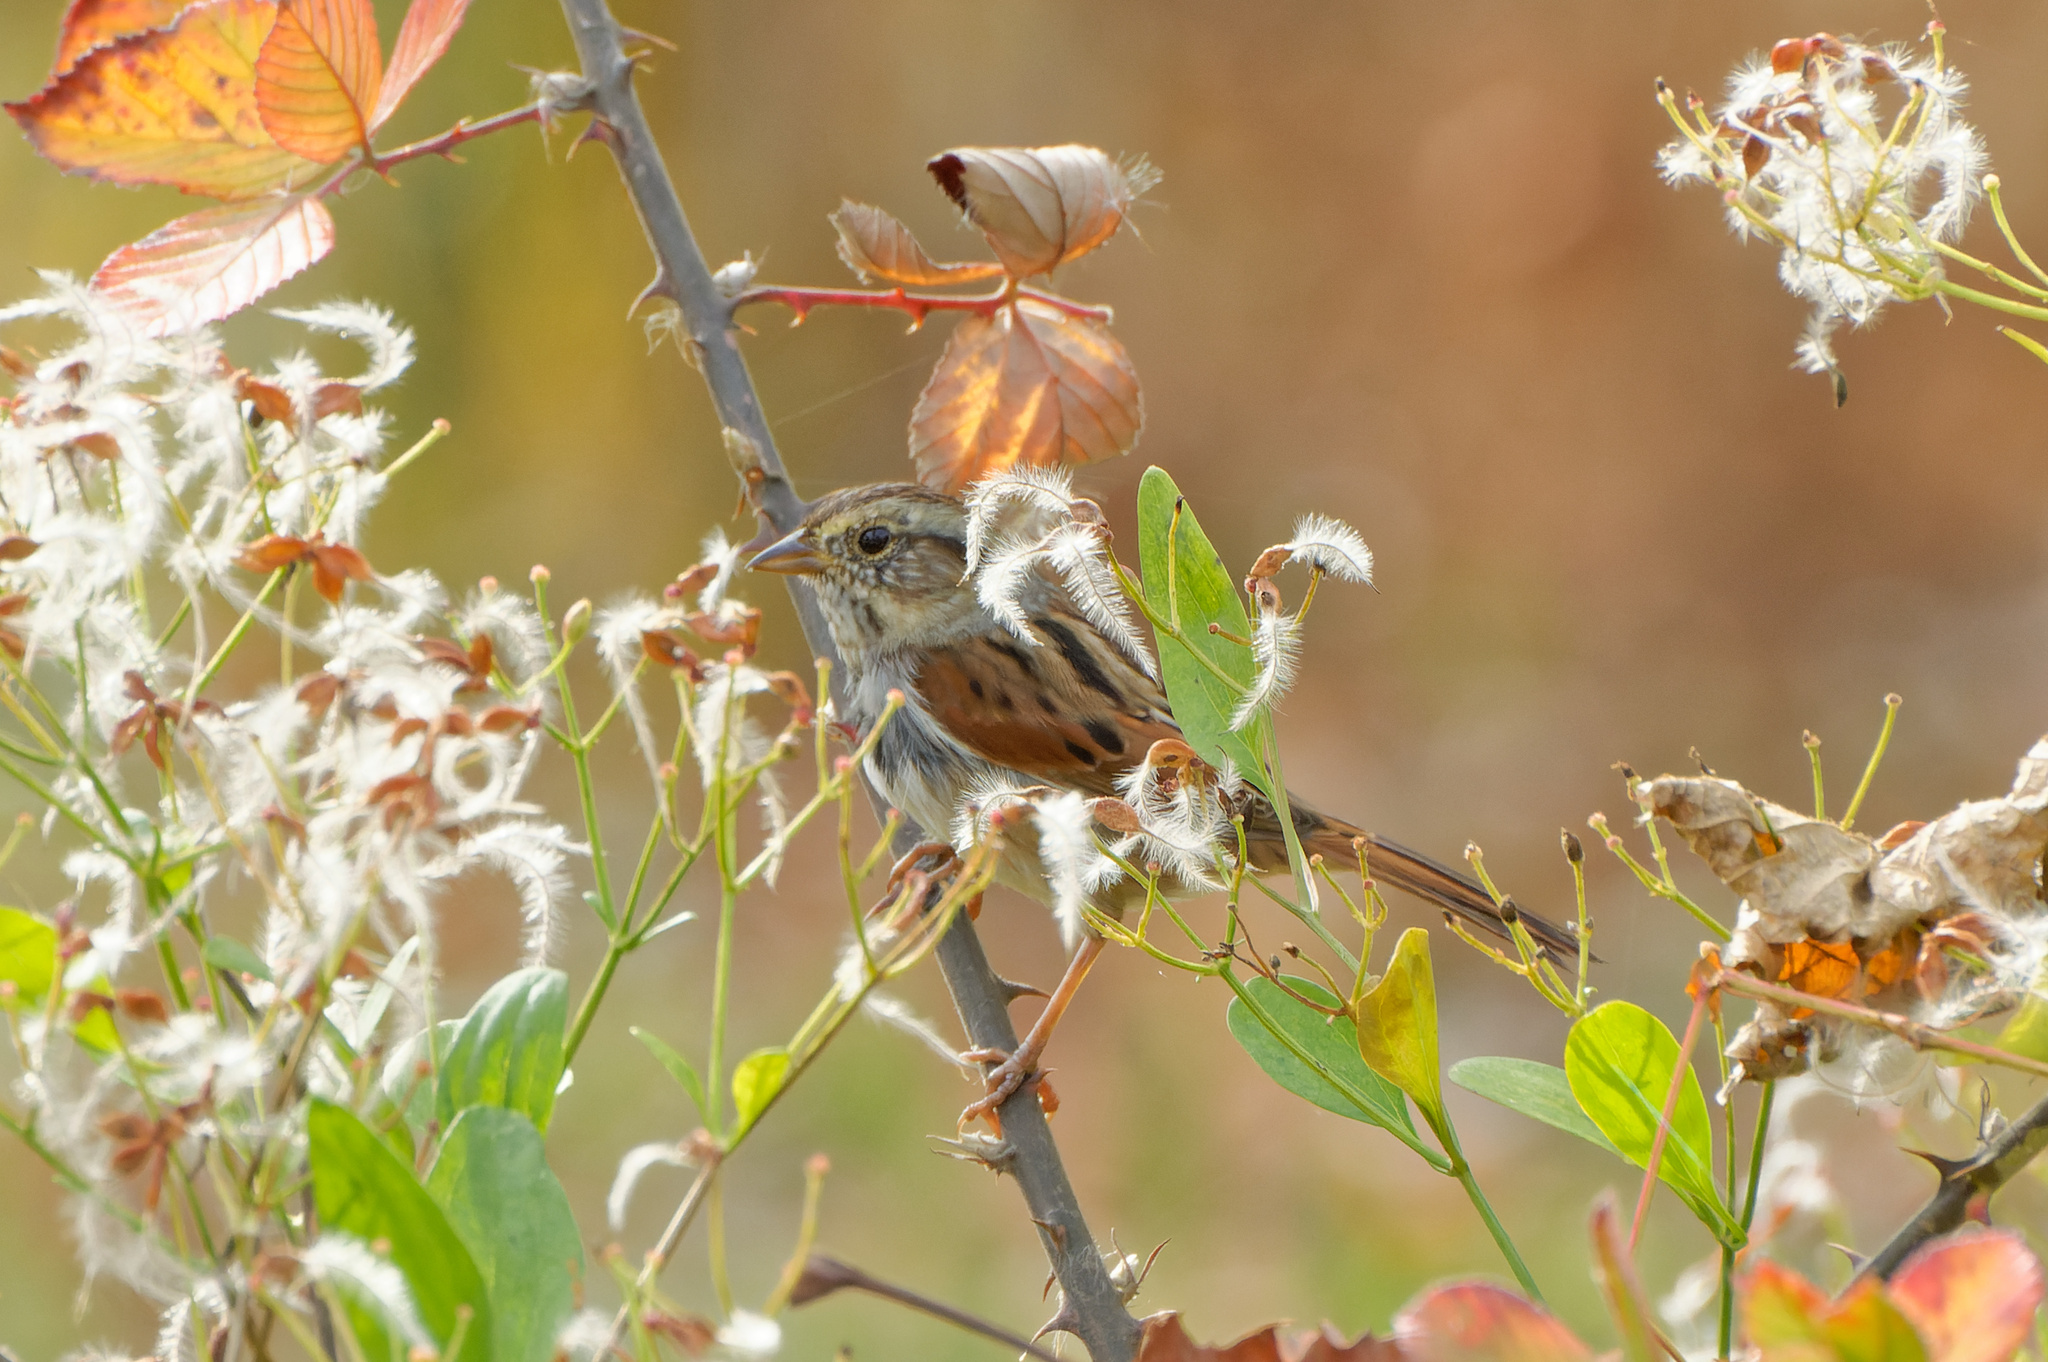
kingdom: Animalia
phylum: Chordata
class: Aves
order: Passeriformes
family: Passerellidae
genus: Melospiza
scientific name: Melospiza georgiana
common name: Swamp sparrow
